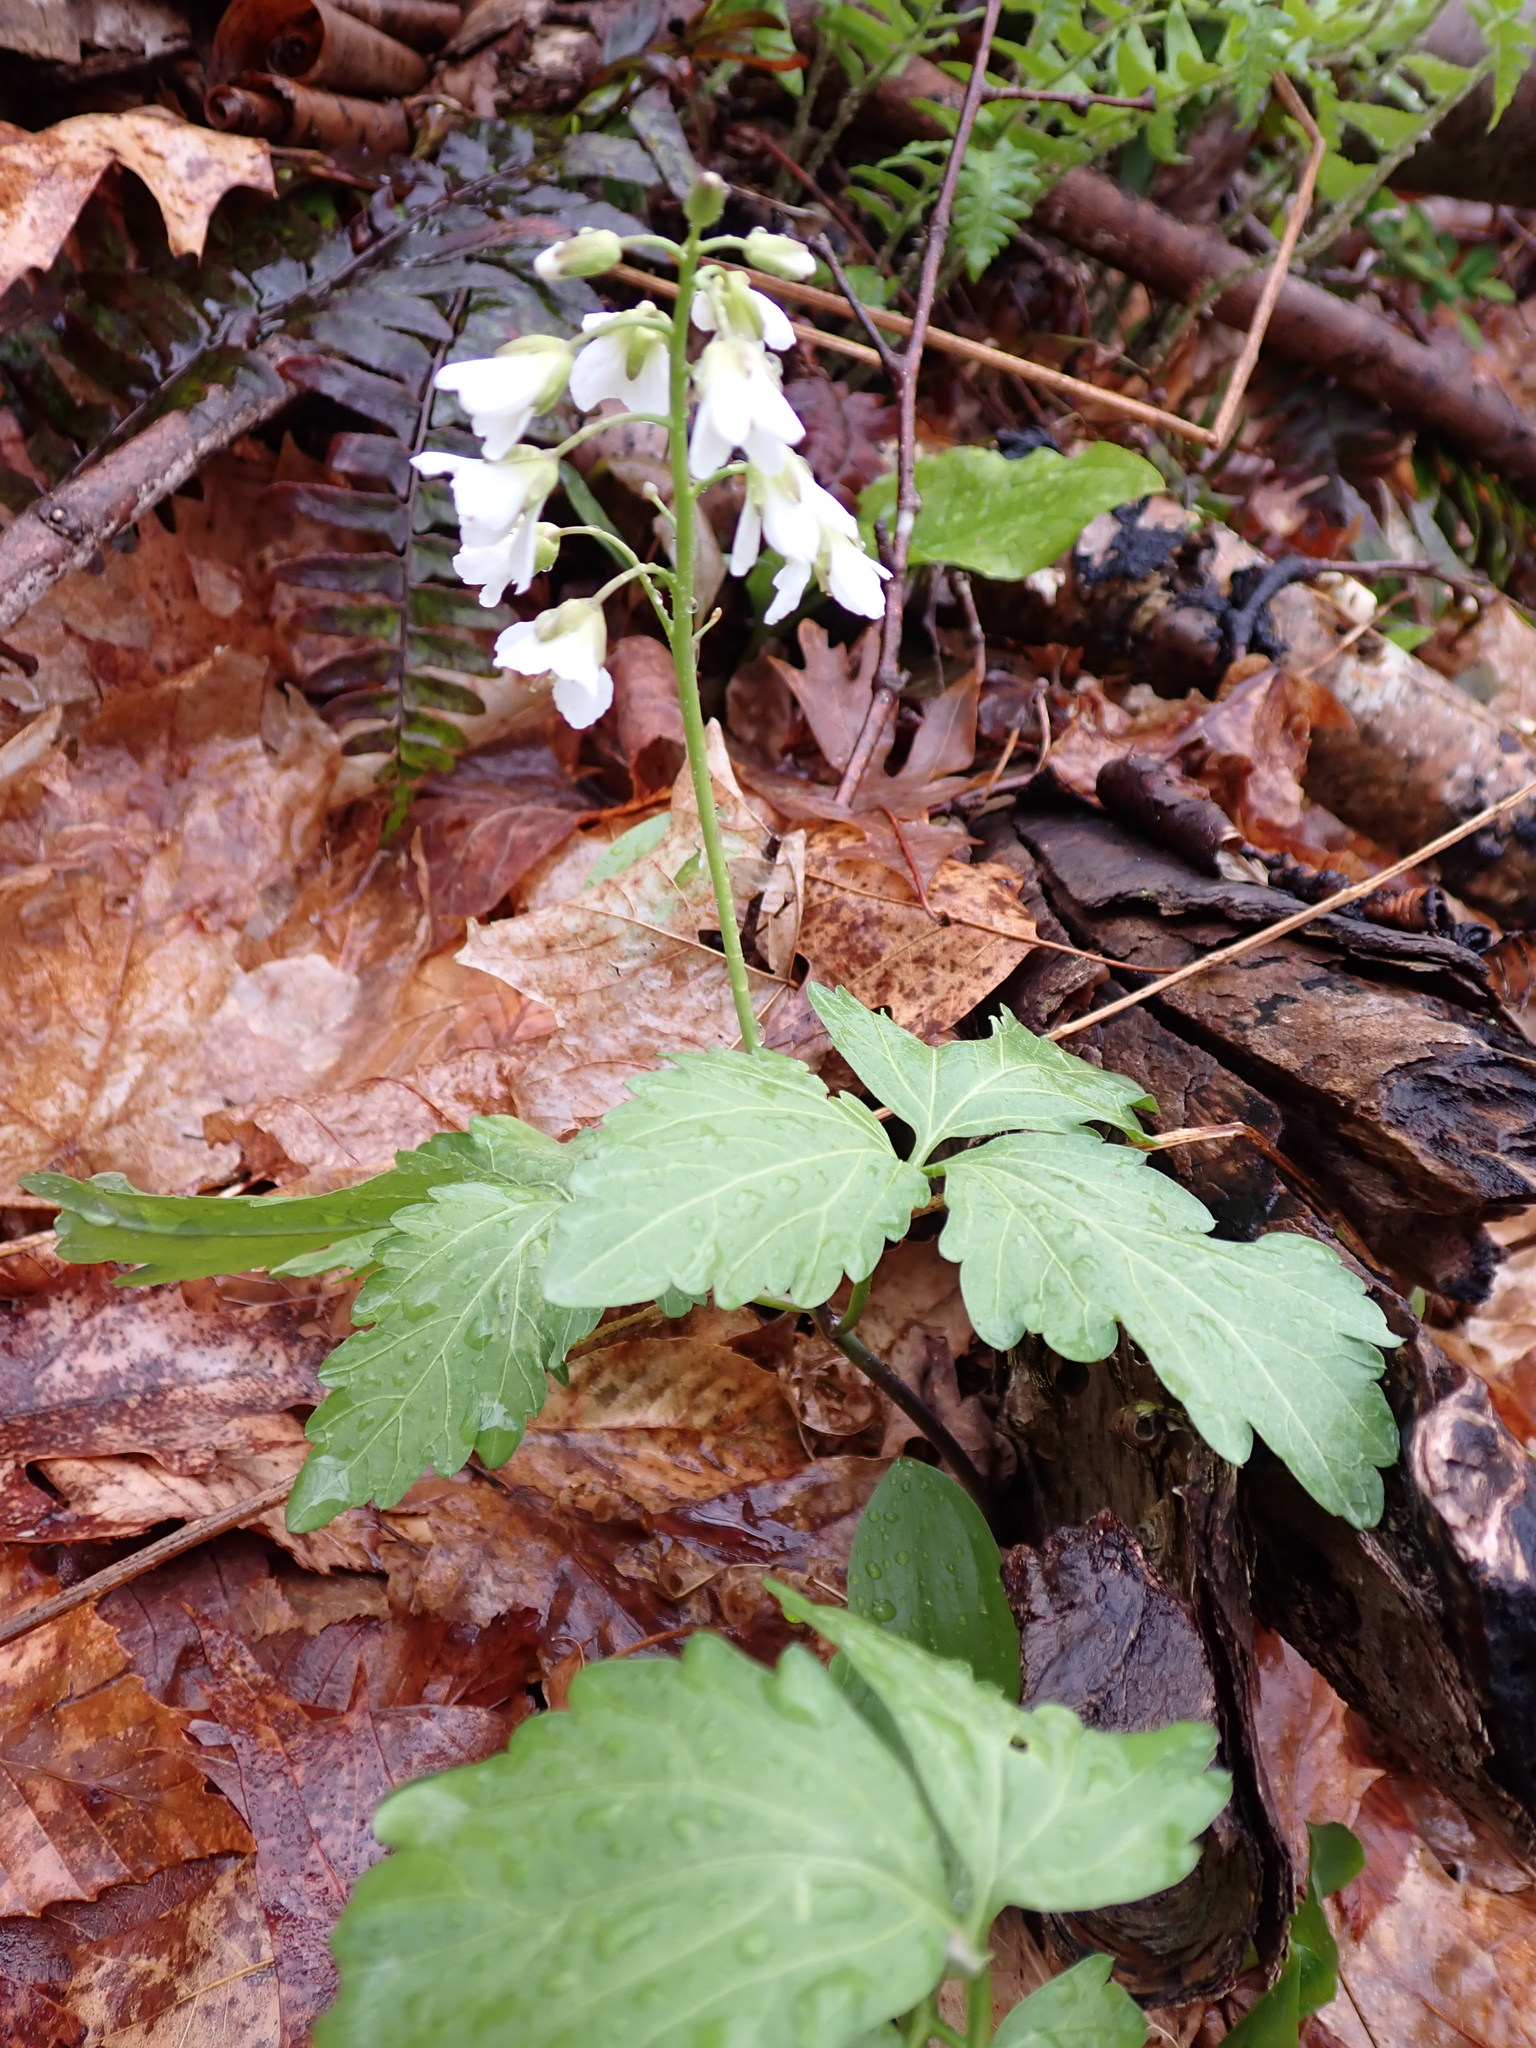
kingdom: Plantae
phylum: Tracheophyta
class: Magnoliopsida
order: Brassicales
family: Brassicaceae
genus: Cardamine
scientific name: Cardamine diphylla
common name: Broad-leaved toothwort
